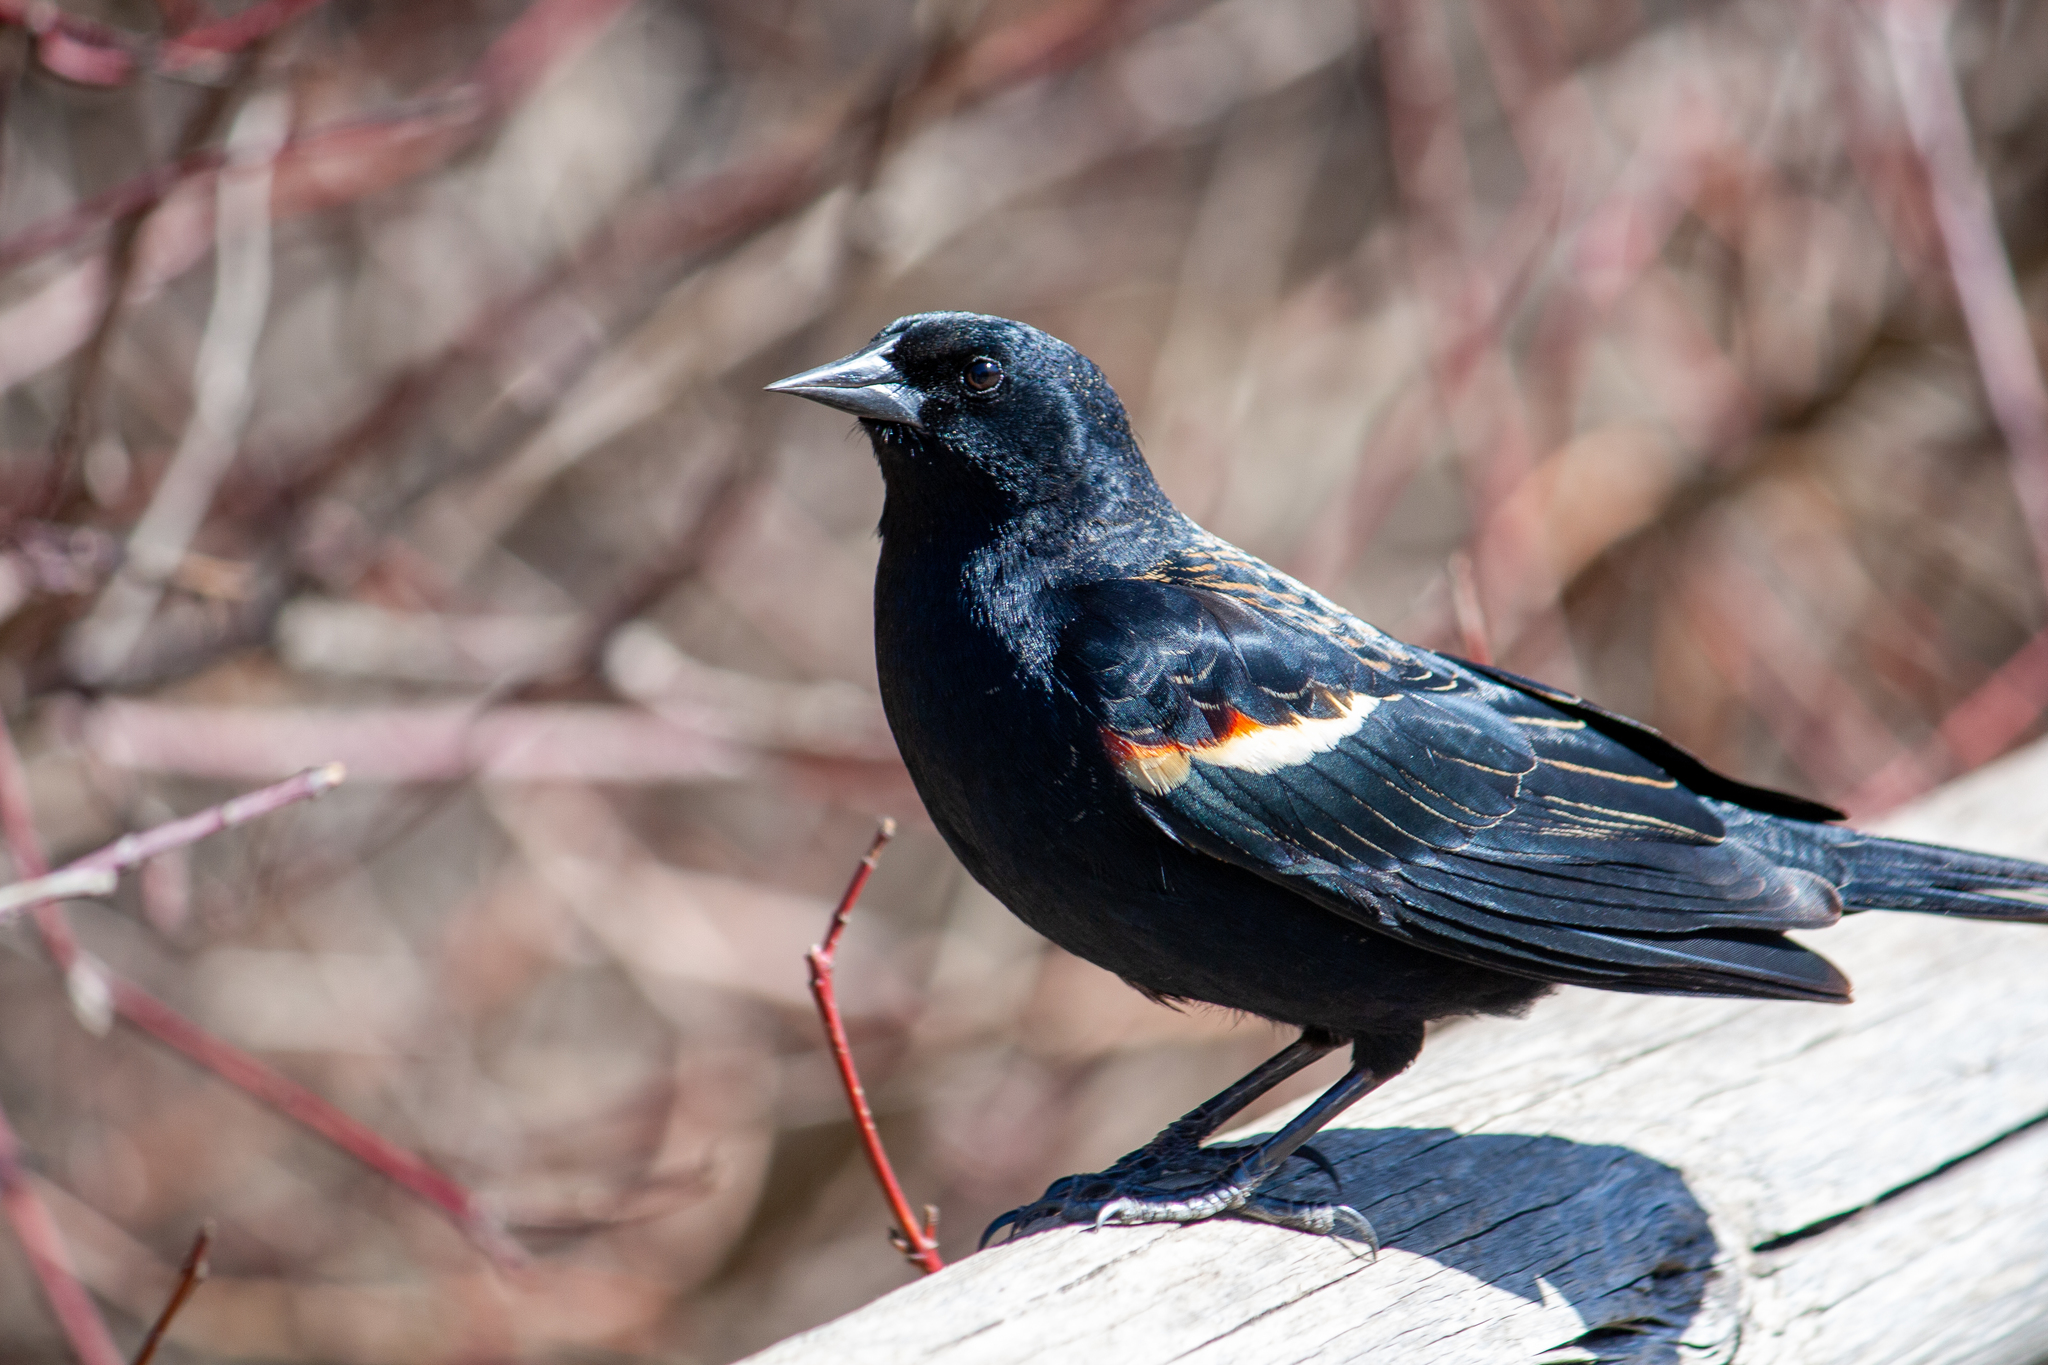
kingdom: Animalia
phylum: Chordata
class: Aves
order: Passeriformes
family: Icteridae
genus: Agelaius
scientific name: Agelaius phoeniceus
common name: Red-winged blackbird
